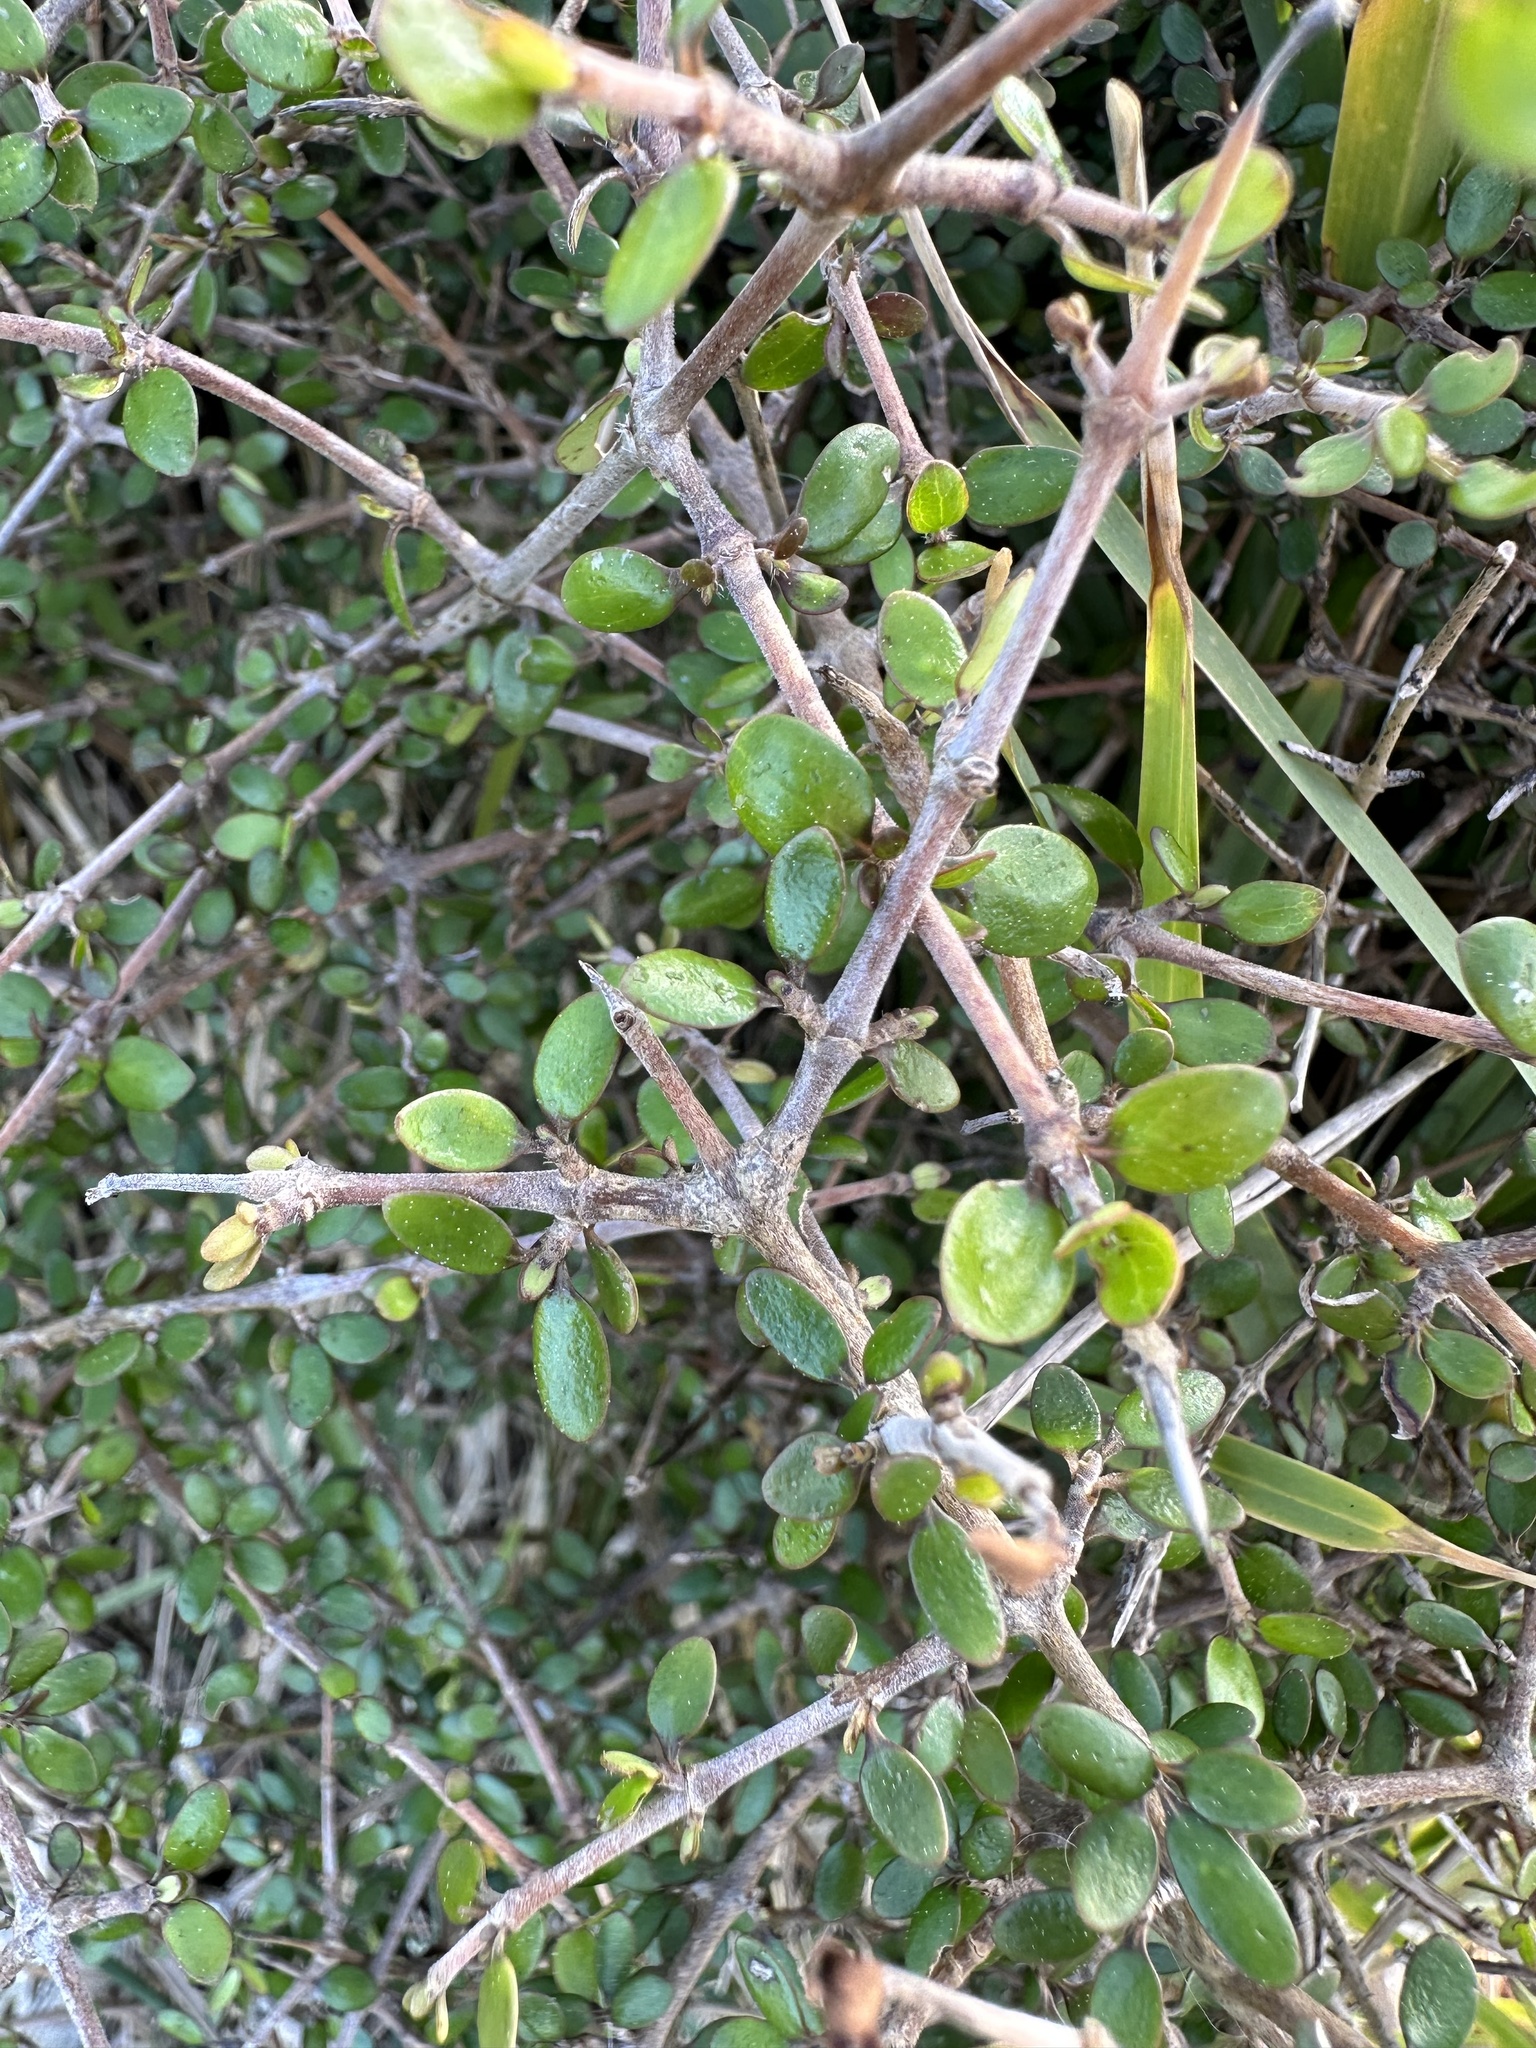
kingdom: Plantae
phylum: Tracheophyta
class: Magnoliopsida
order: Gentianales
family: Rubiaceae
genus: Coprosma
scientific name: Coprosma crassifolia
